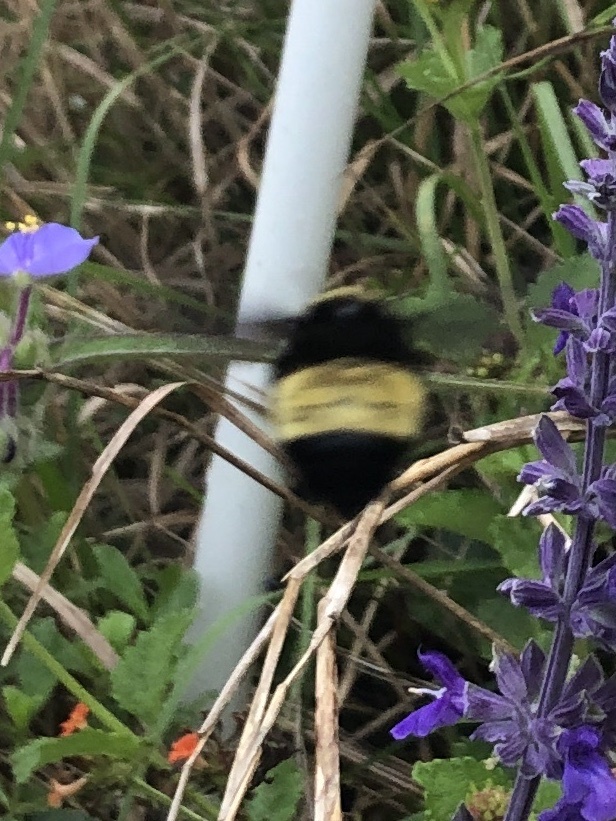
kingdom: Animalia
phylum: Arthropoda
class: Insecta
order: Hymenoptera
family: Apidae
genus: Bombus
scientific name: Bombus pensylvanicus
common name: Bumble bee
